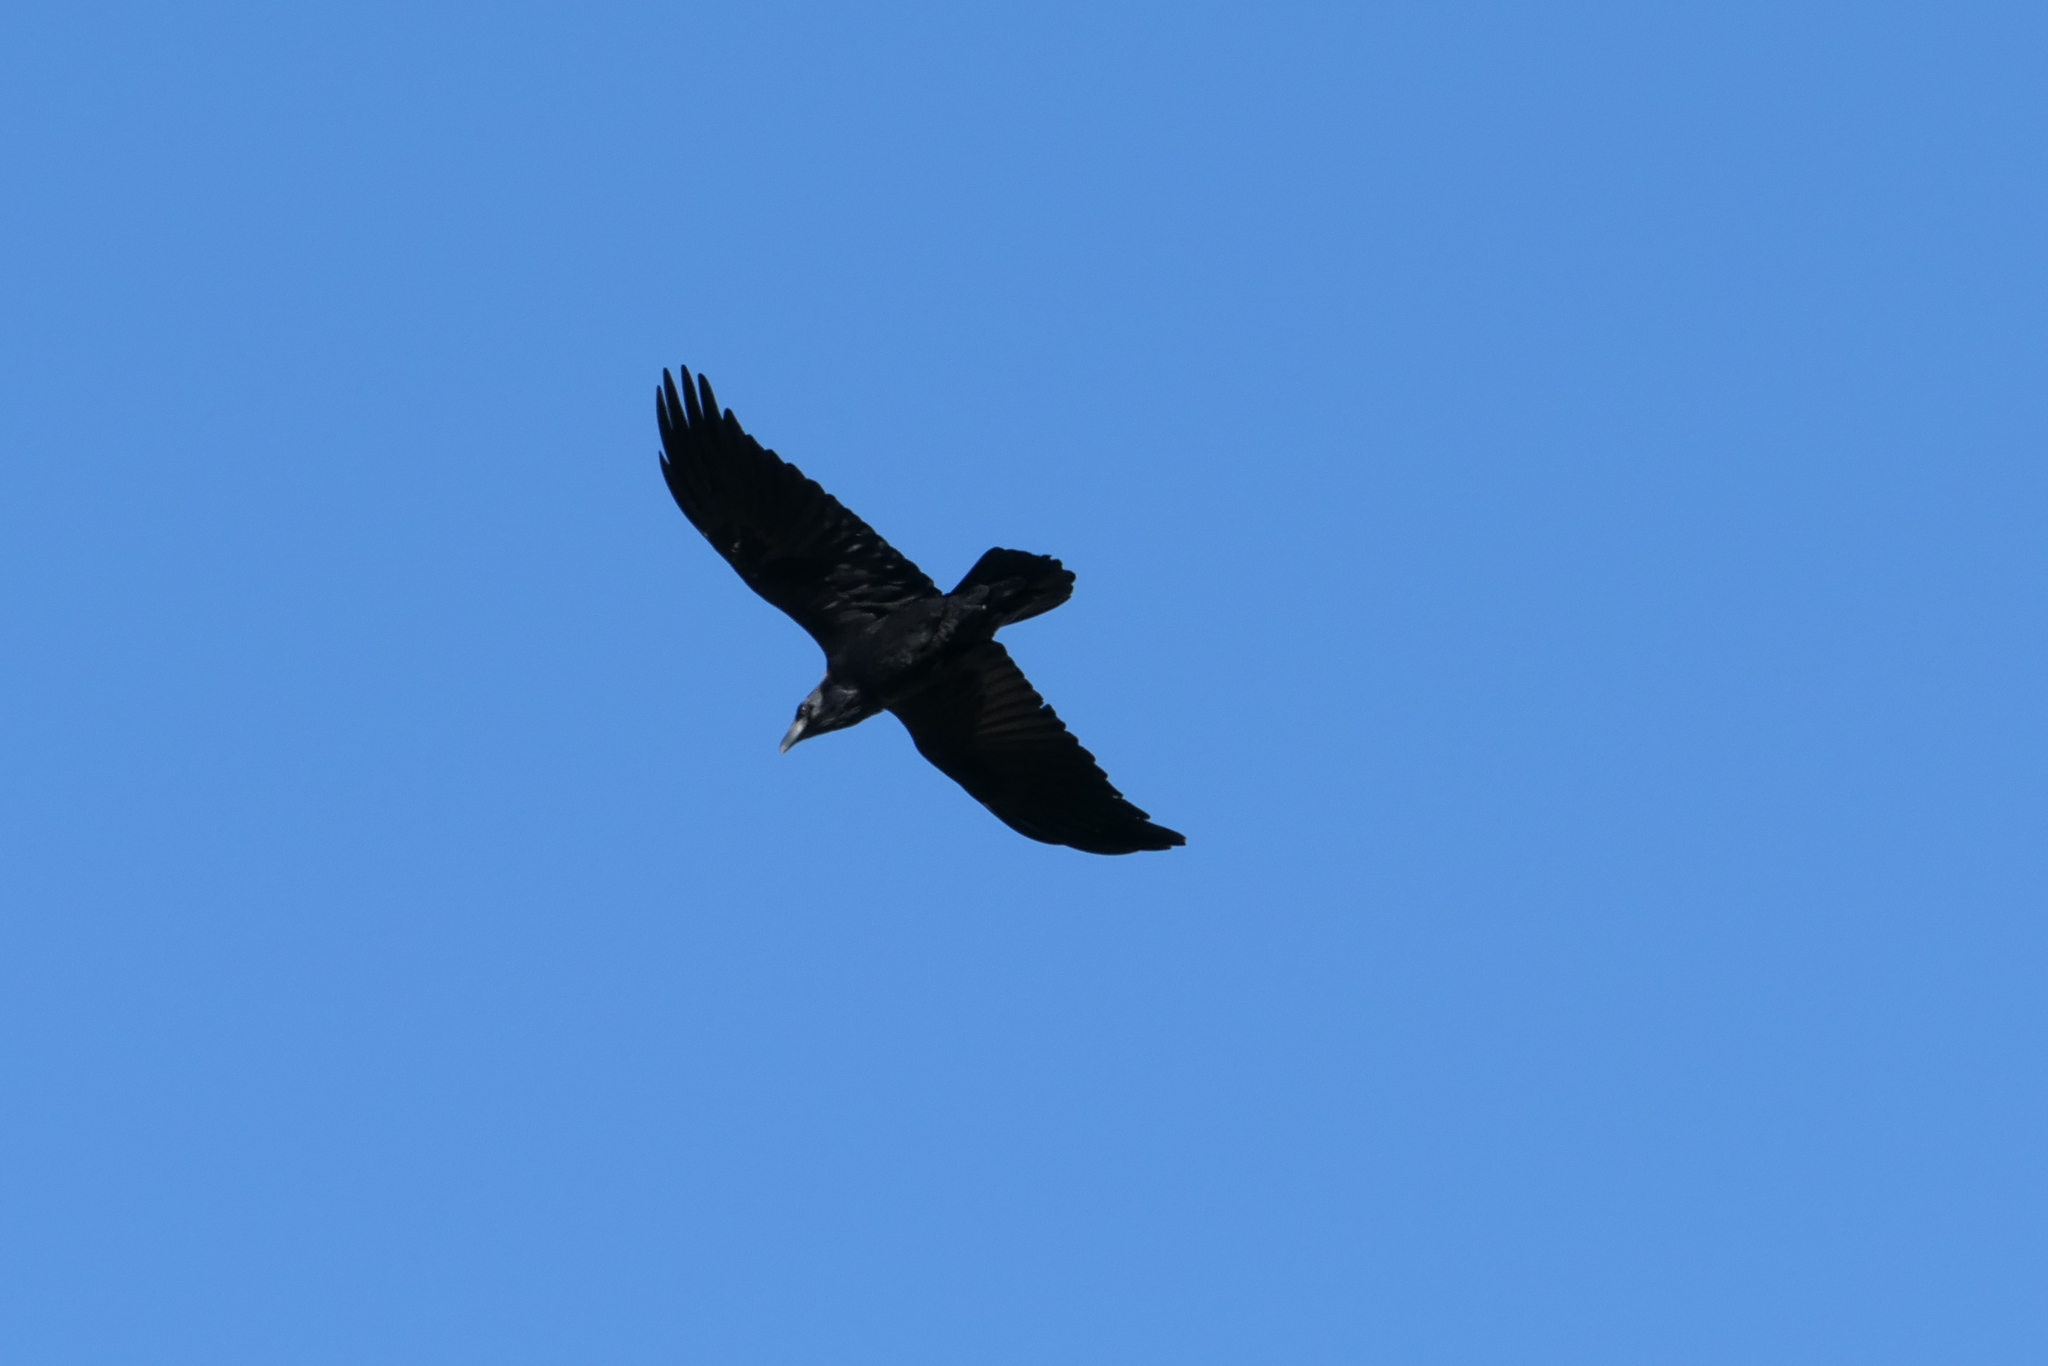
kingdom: Animalia
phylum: Chordata
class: Aves
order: Passeriformes
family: Corvidae
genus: Corvus
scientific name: Corvus corax
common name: Common raven
